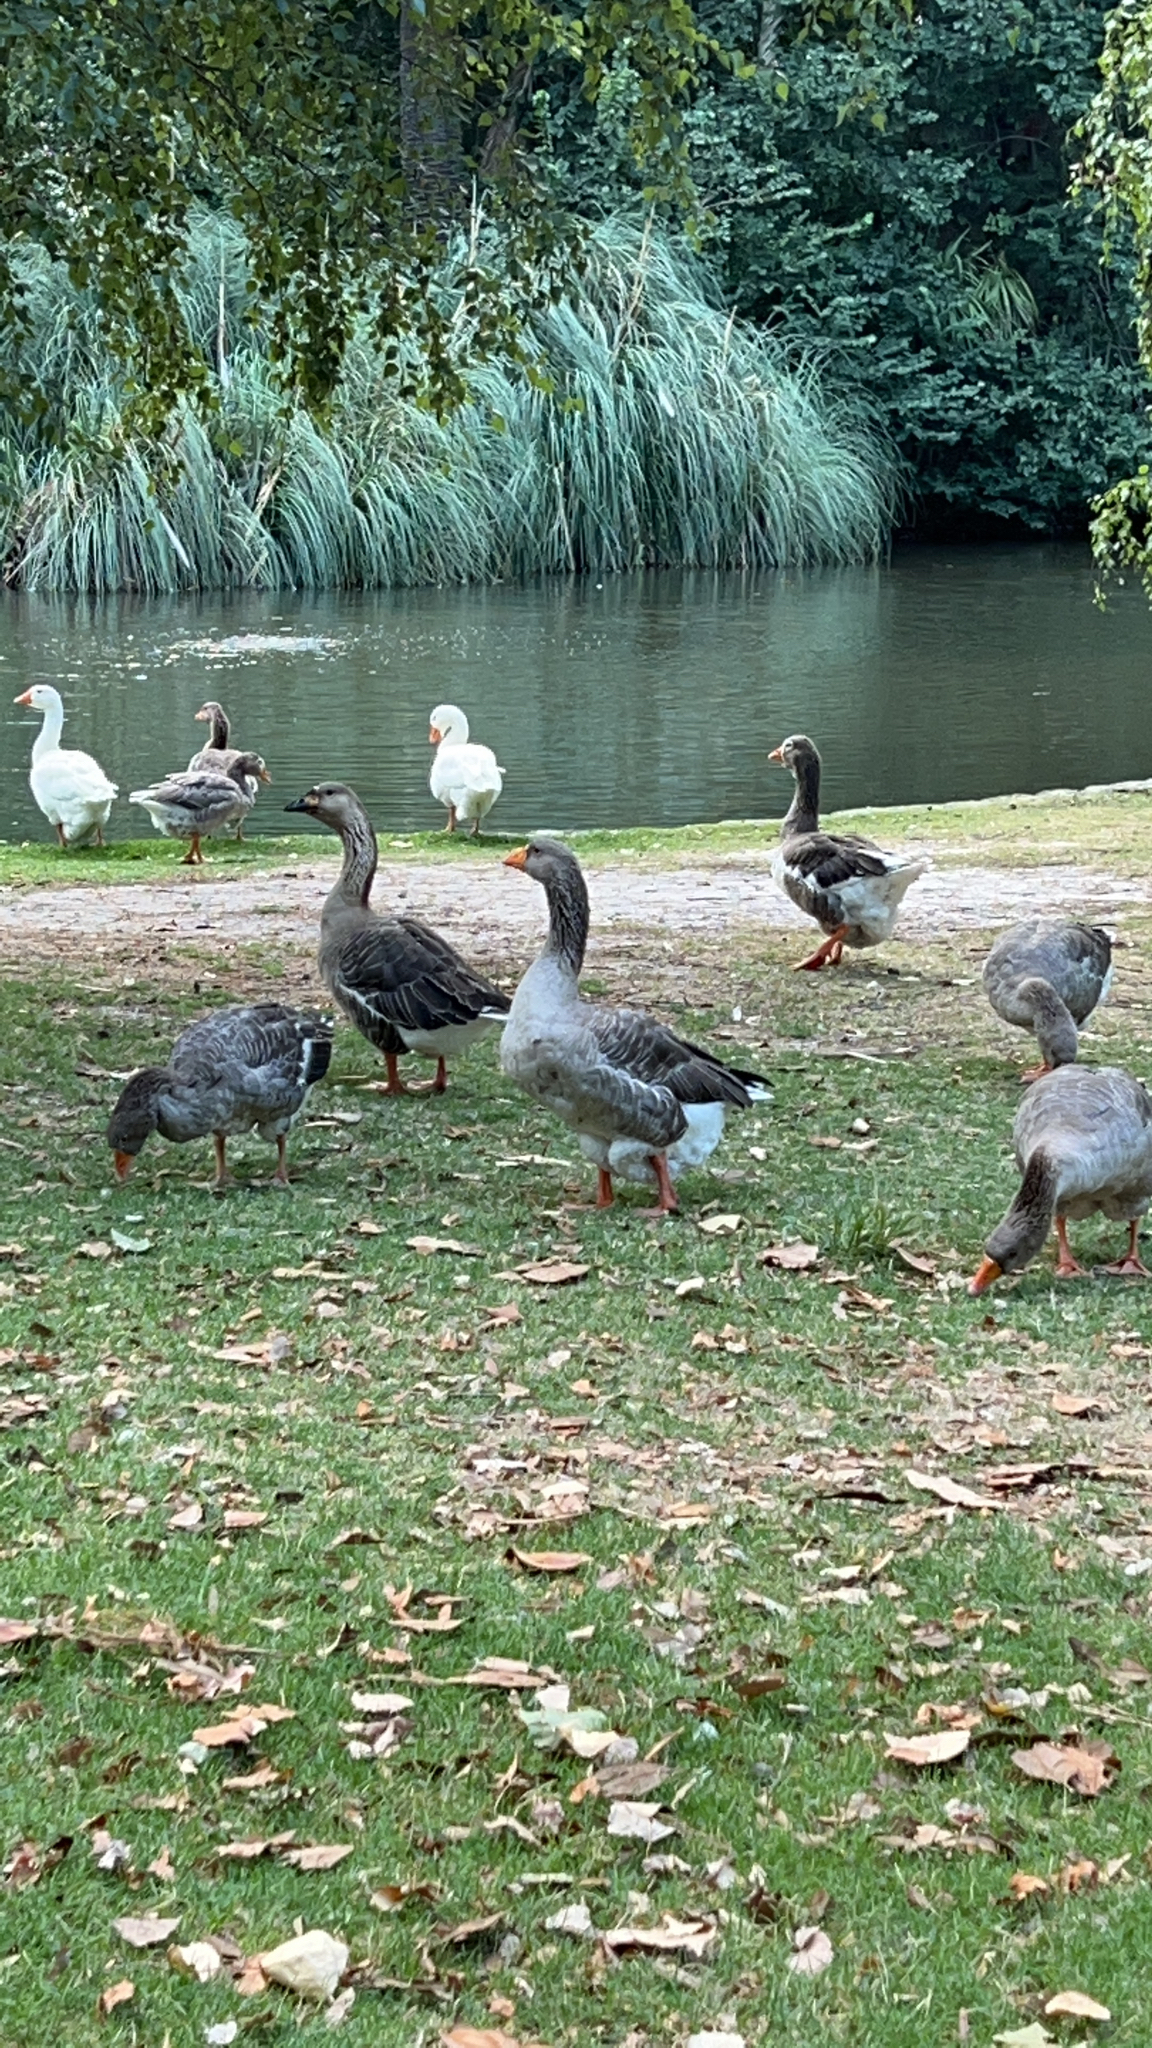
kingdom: Animalia
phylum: Chordata
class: Aves
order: Anseriformes
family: Anatidae
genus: Anser
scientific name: Anser anser
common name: Greylag goose
